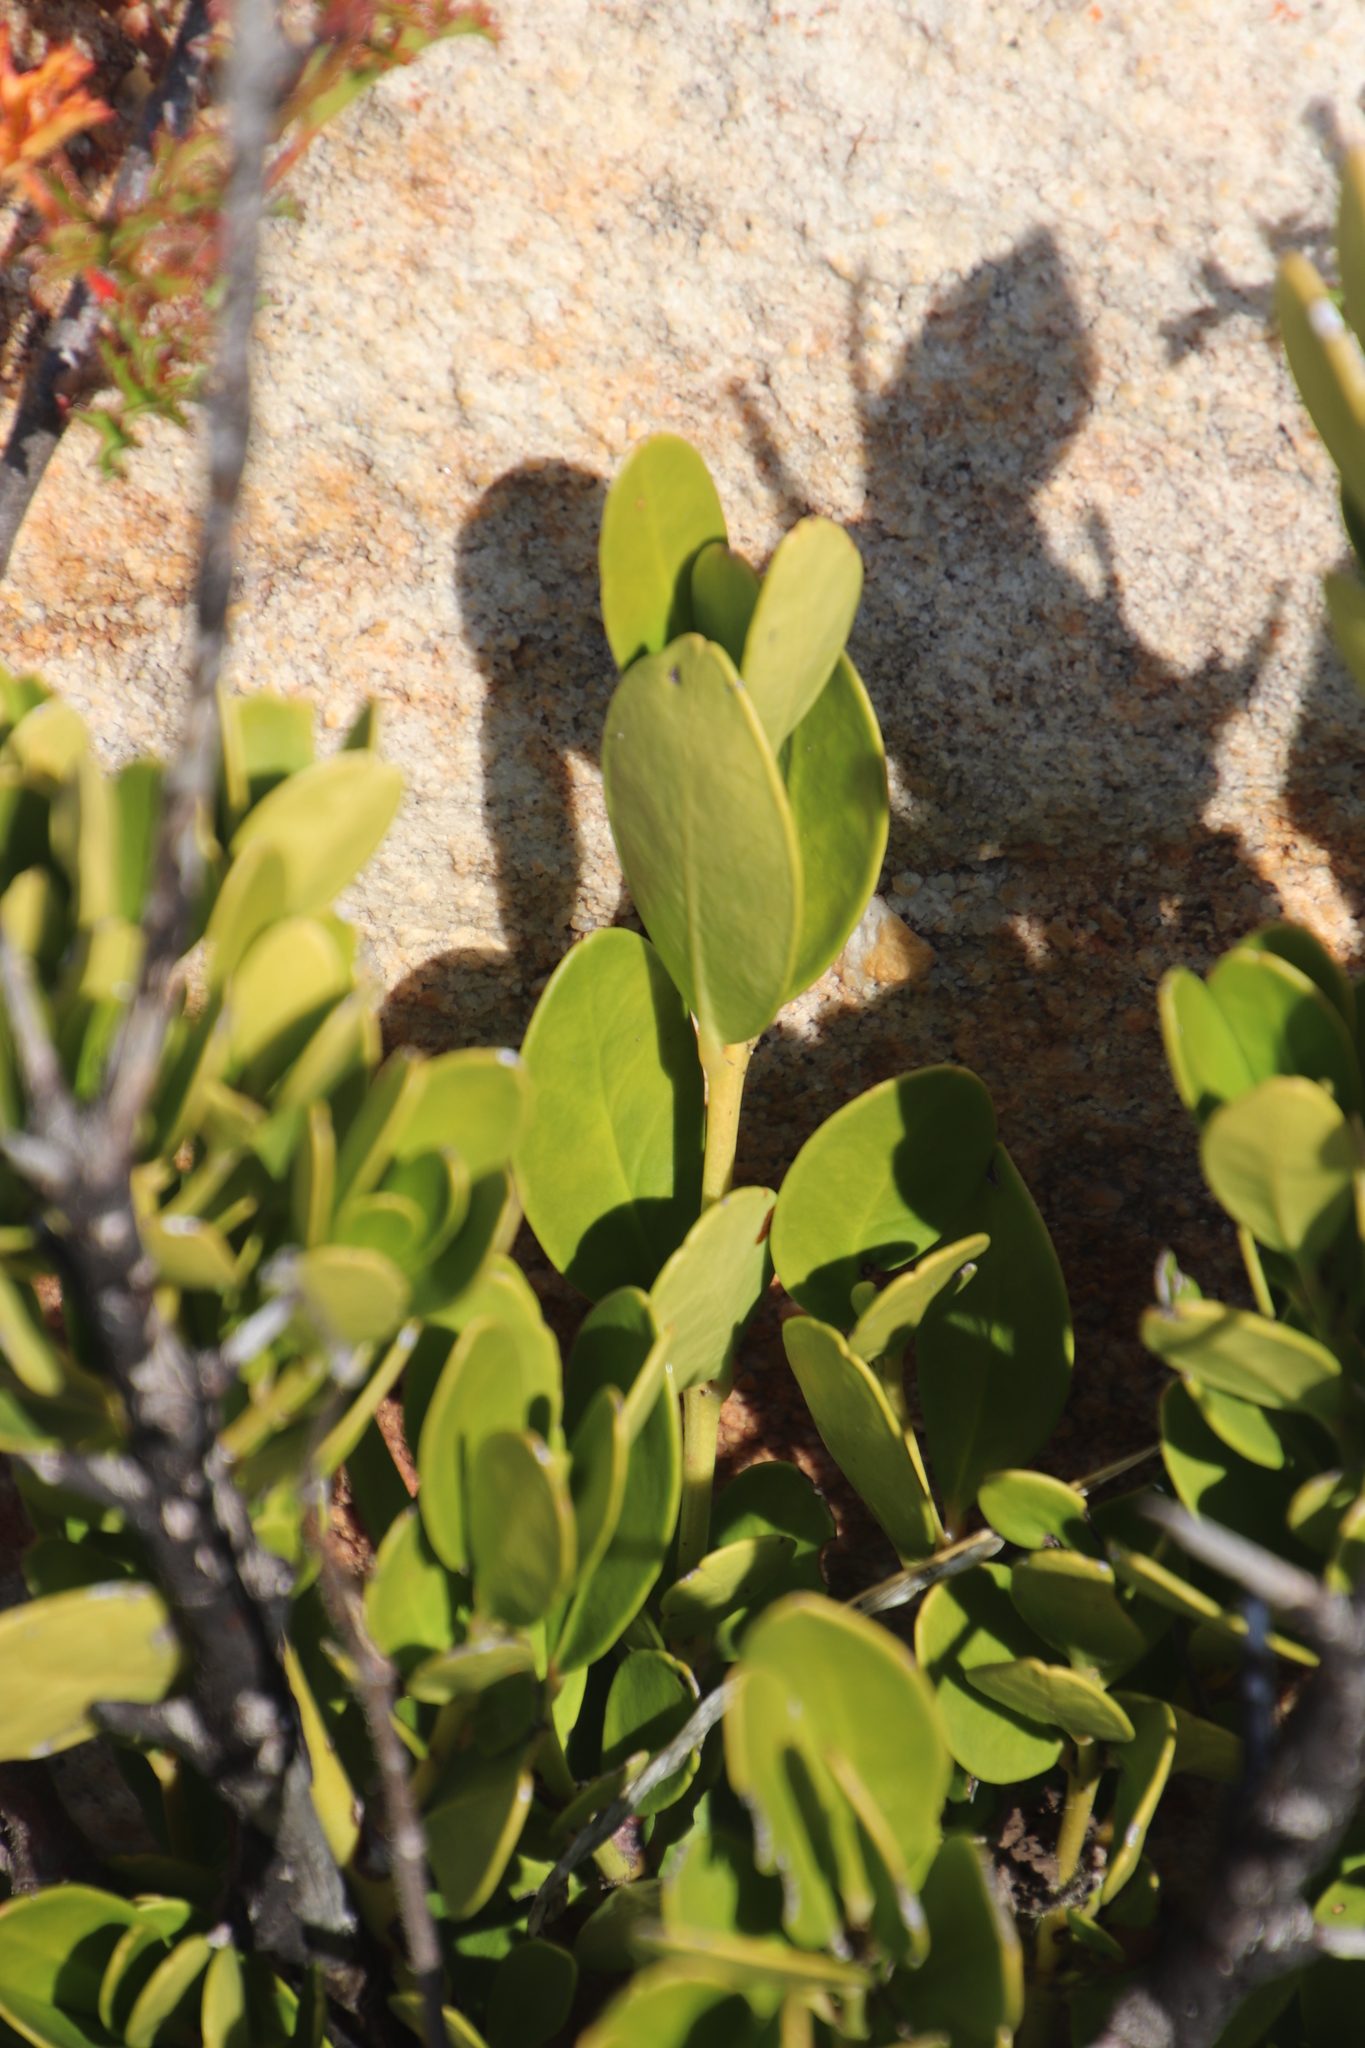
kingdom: Plantae
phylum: Tracheophyta
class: Magnoliopsida
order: Lamiales
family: Oleaceae
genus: Olea
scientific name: Olea capensis
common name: Black ironwood
